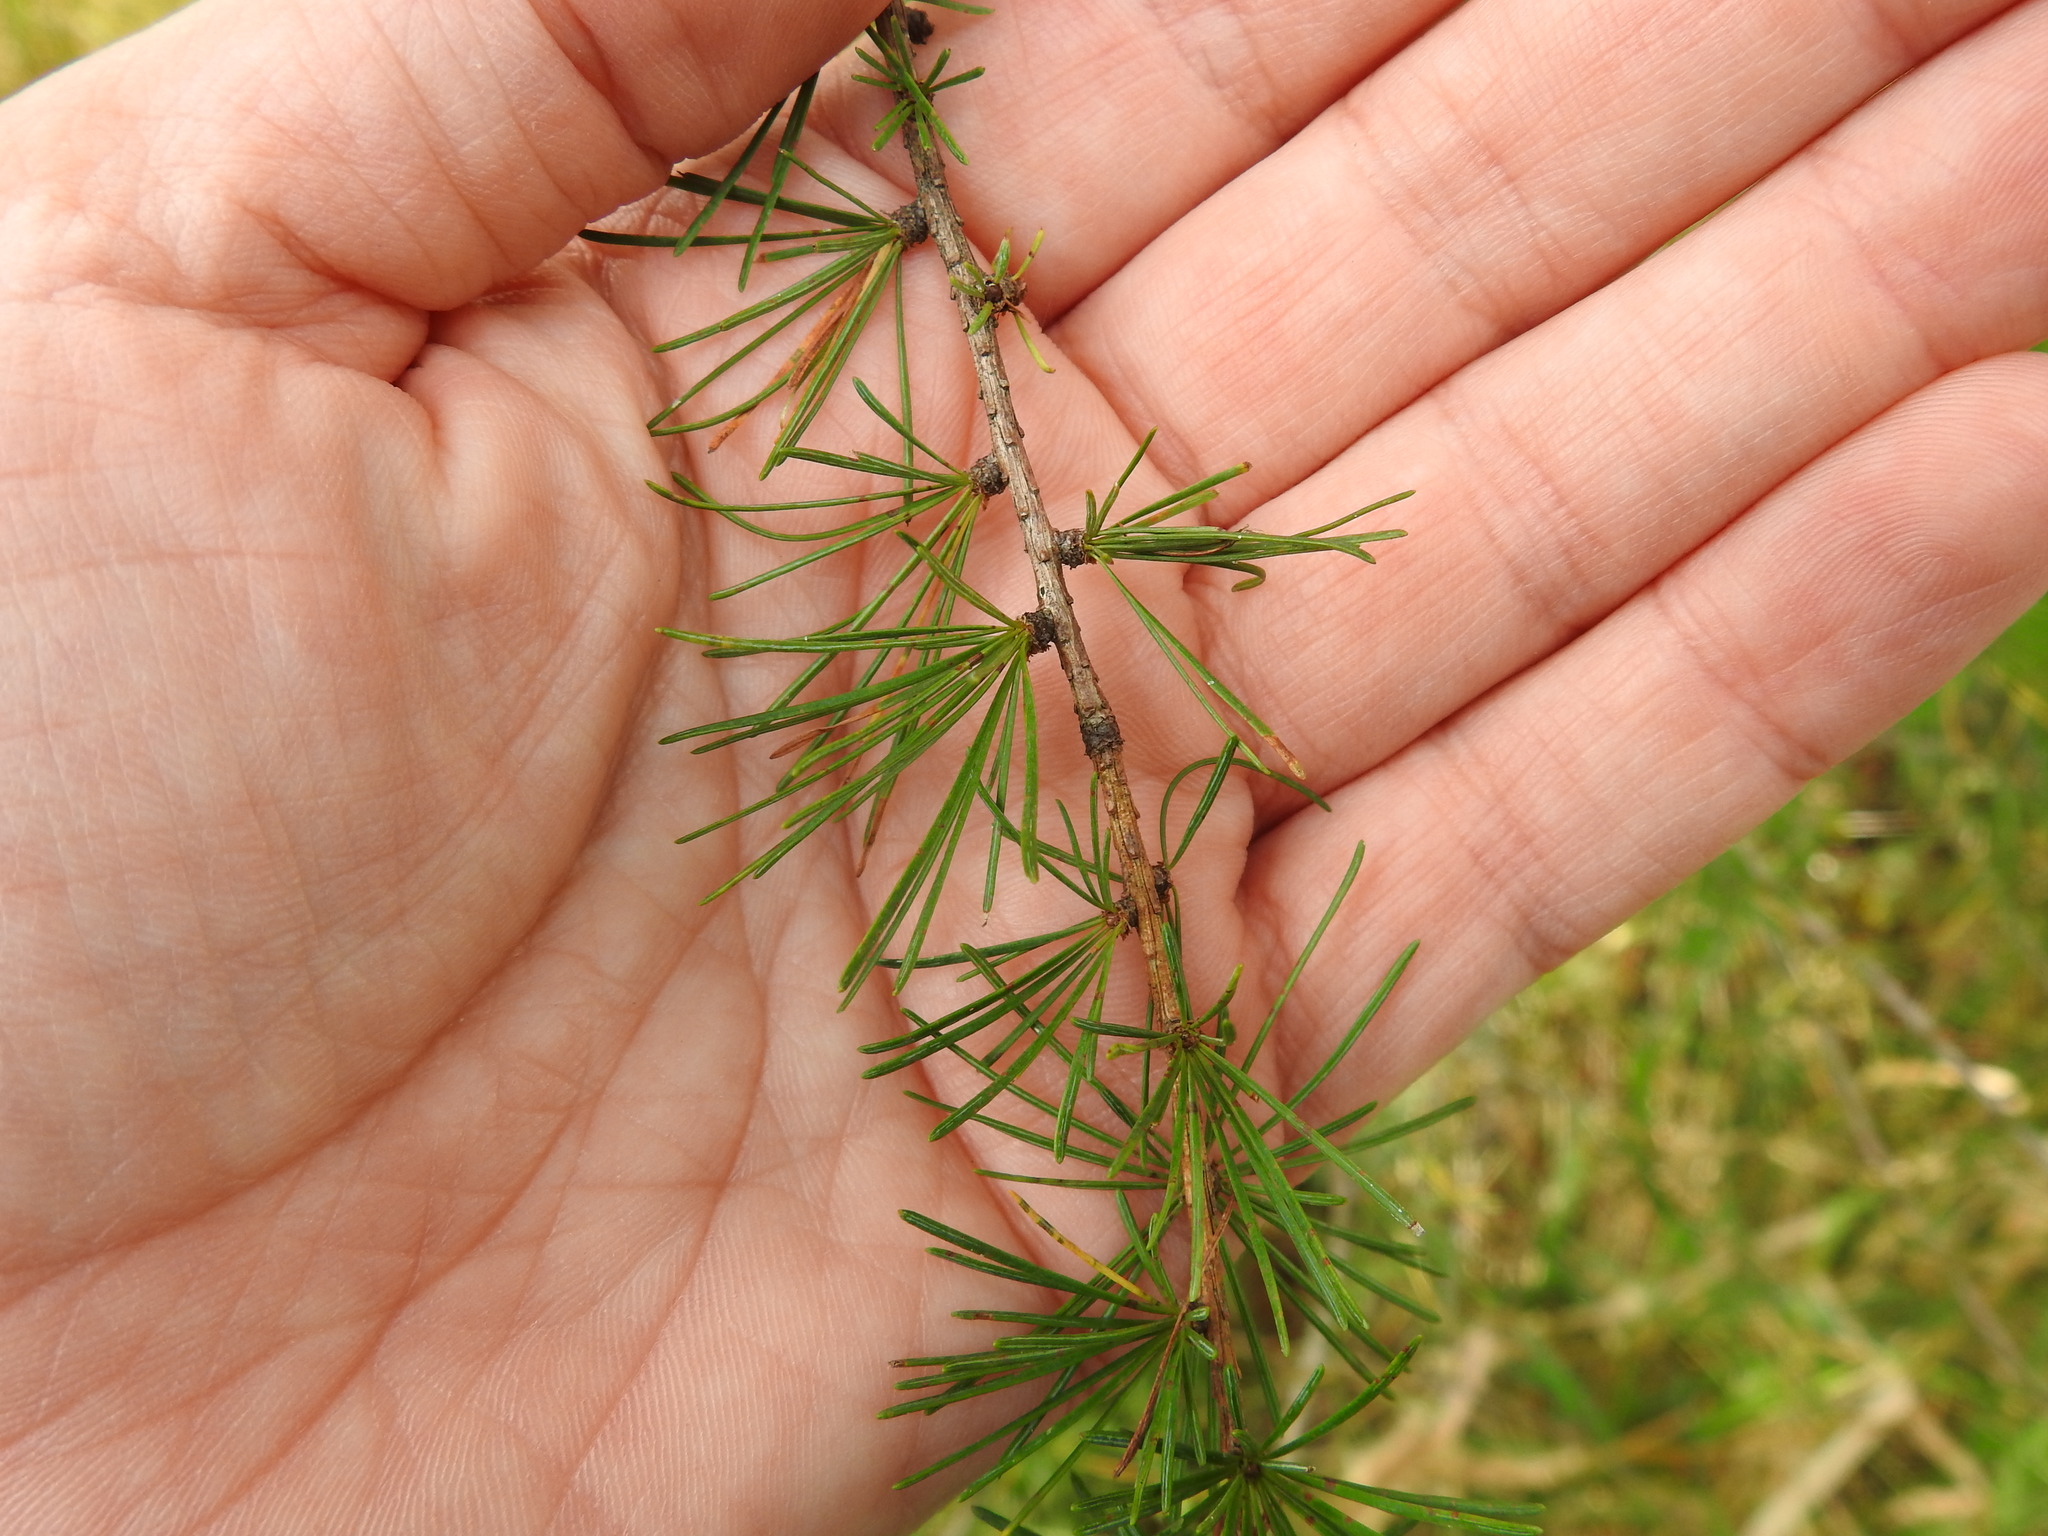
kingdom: Plantae
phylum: Tracheophyta
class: Pinopsida
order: Pinales
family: Pinaceae
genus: Larix
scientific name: Larix laricina
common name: American larch
